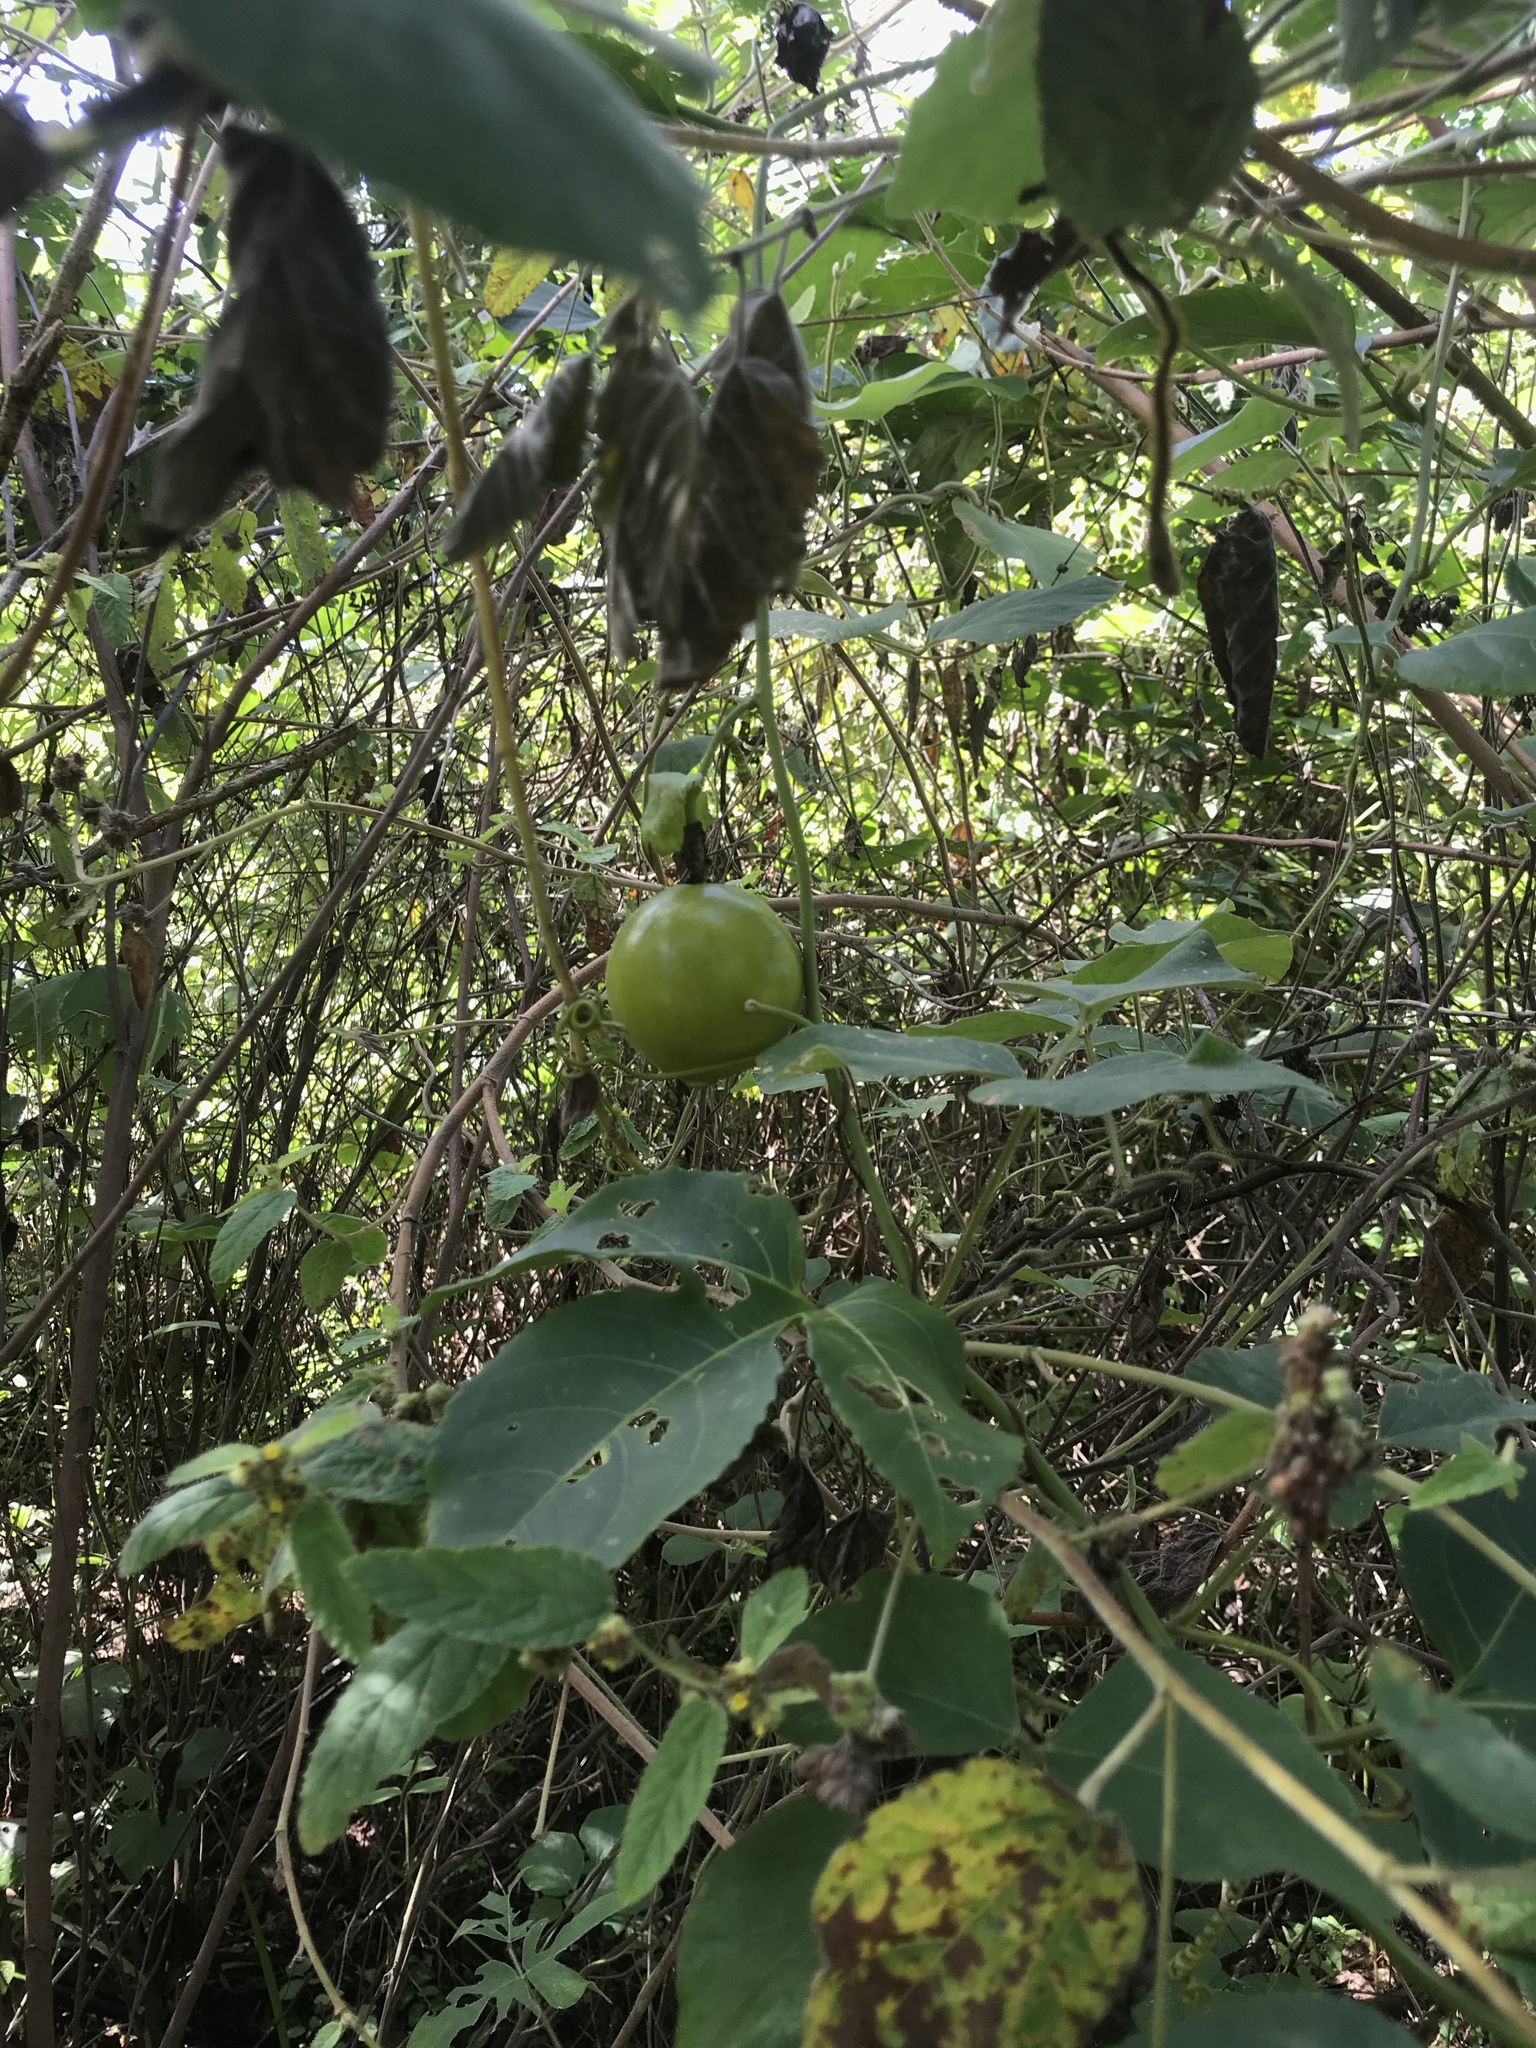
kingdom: Plantae
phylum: Tracheophyta
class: Magnoliopsida
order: Malpighiales
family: Passifloraceae
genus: Passiflora
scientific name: Passiflora edulis
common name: Purple granadilla
